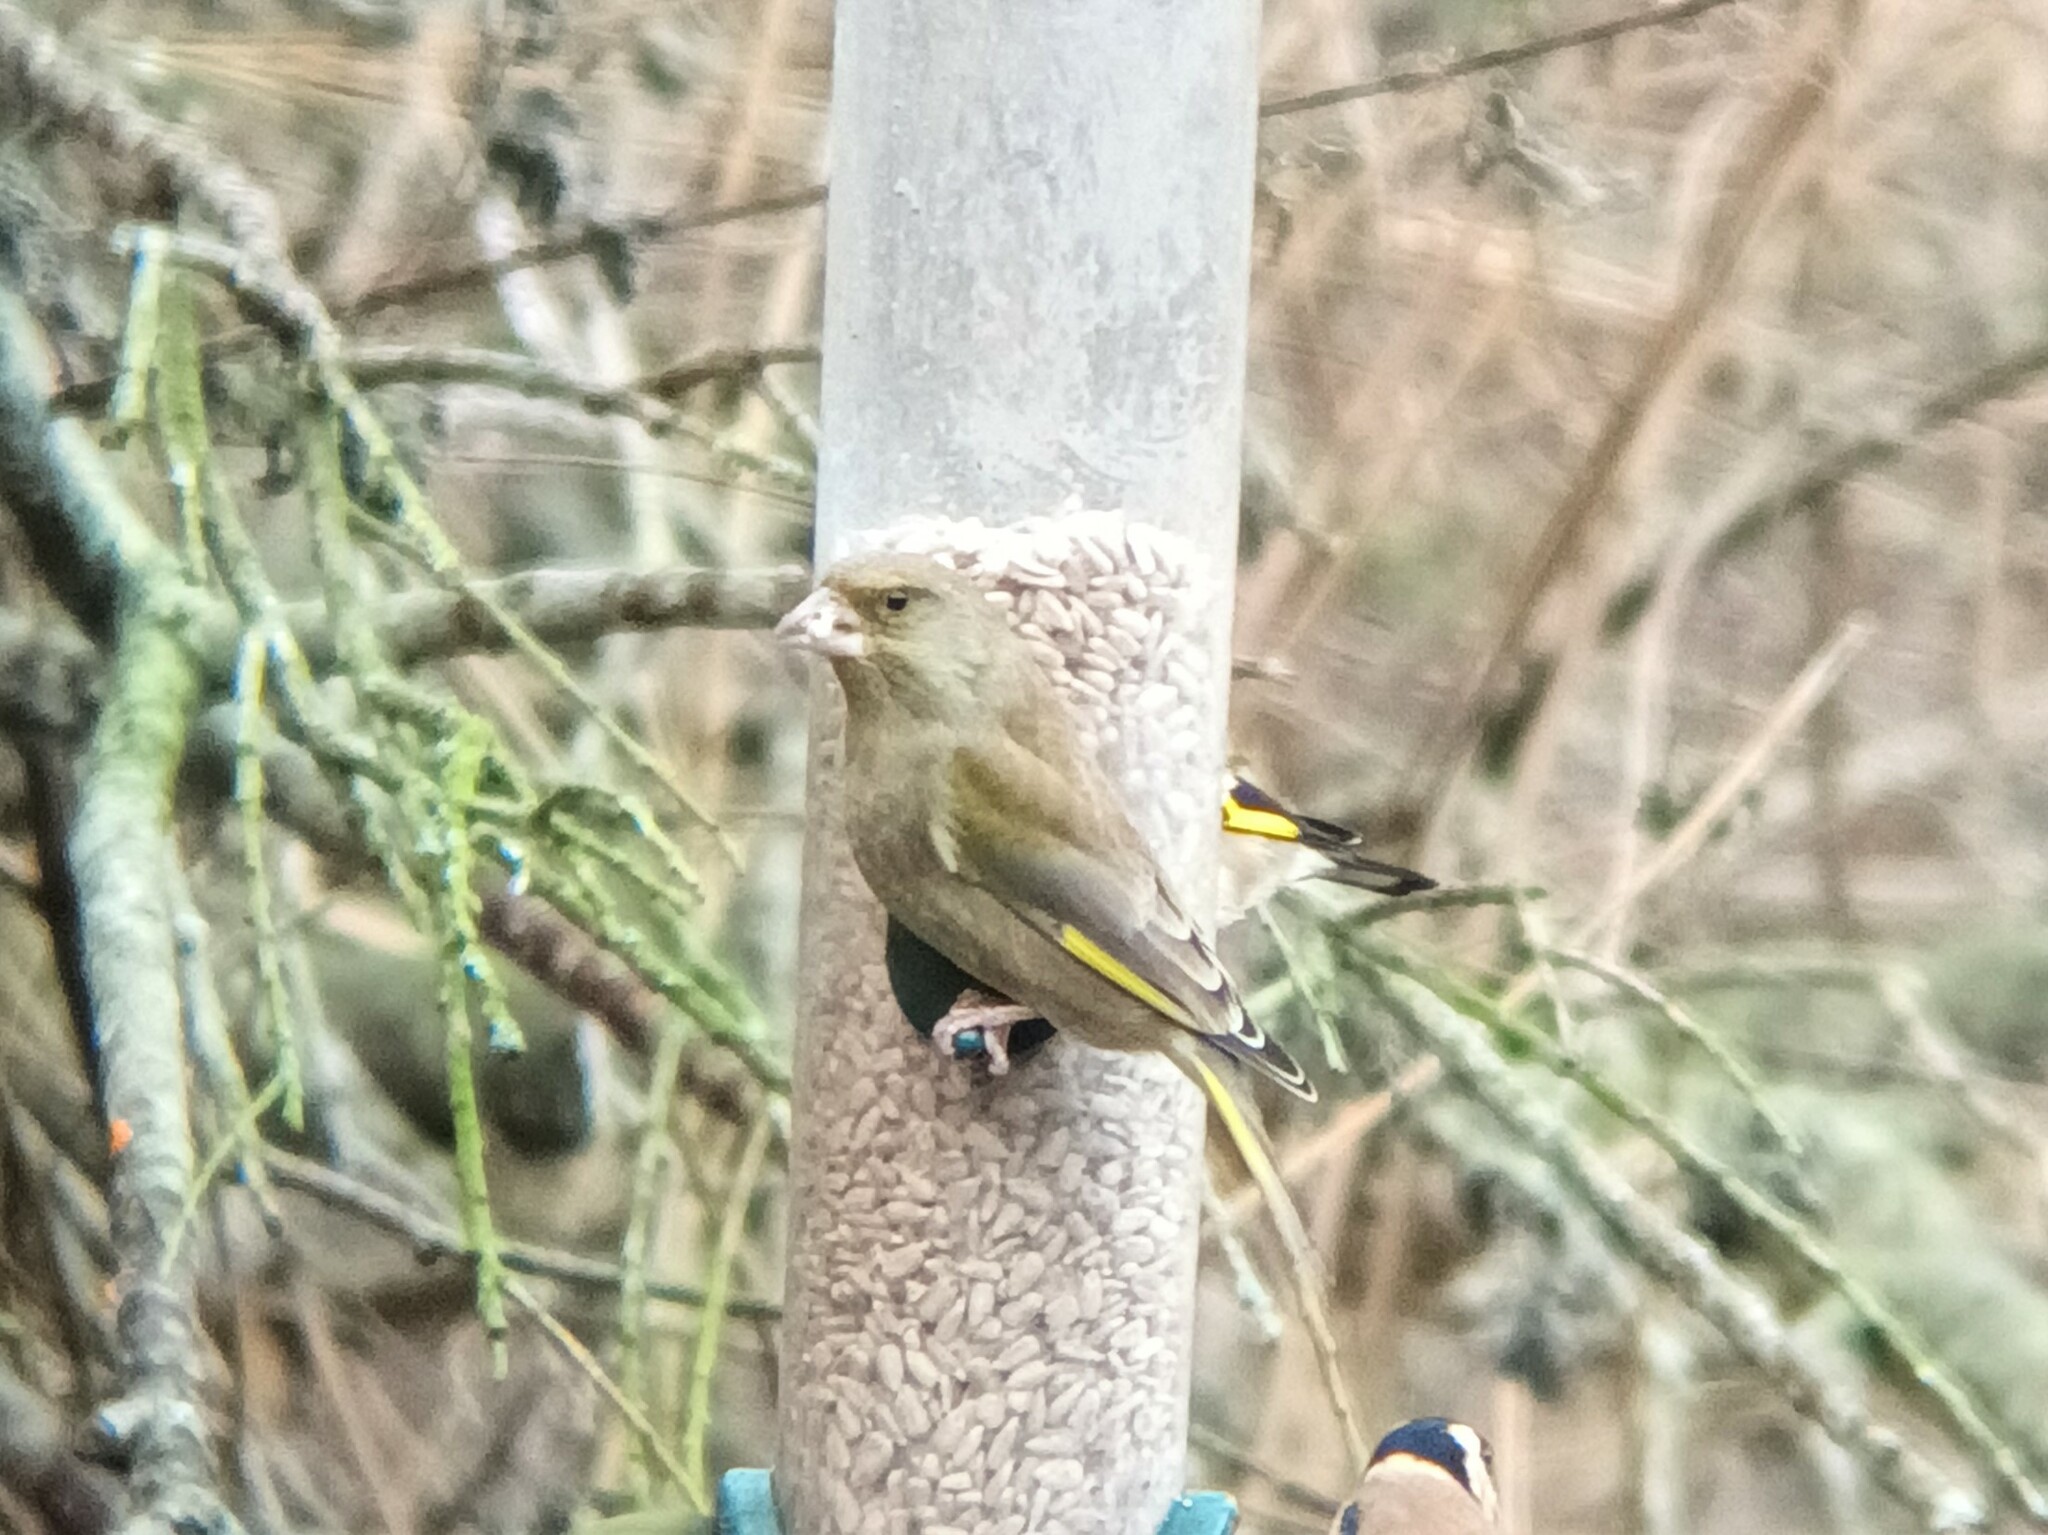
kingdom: Plantae
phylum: Tracheophyta
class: Liliopsida
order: Poales
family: Poaceae
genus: Chloris
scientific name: Chloris chloris
